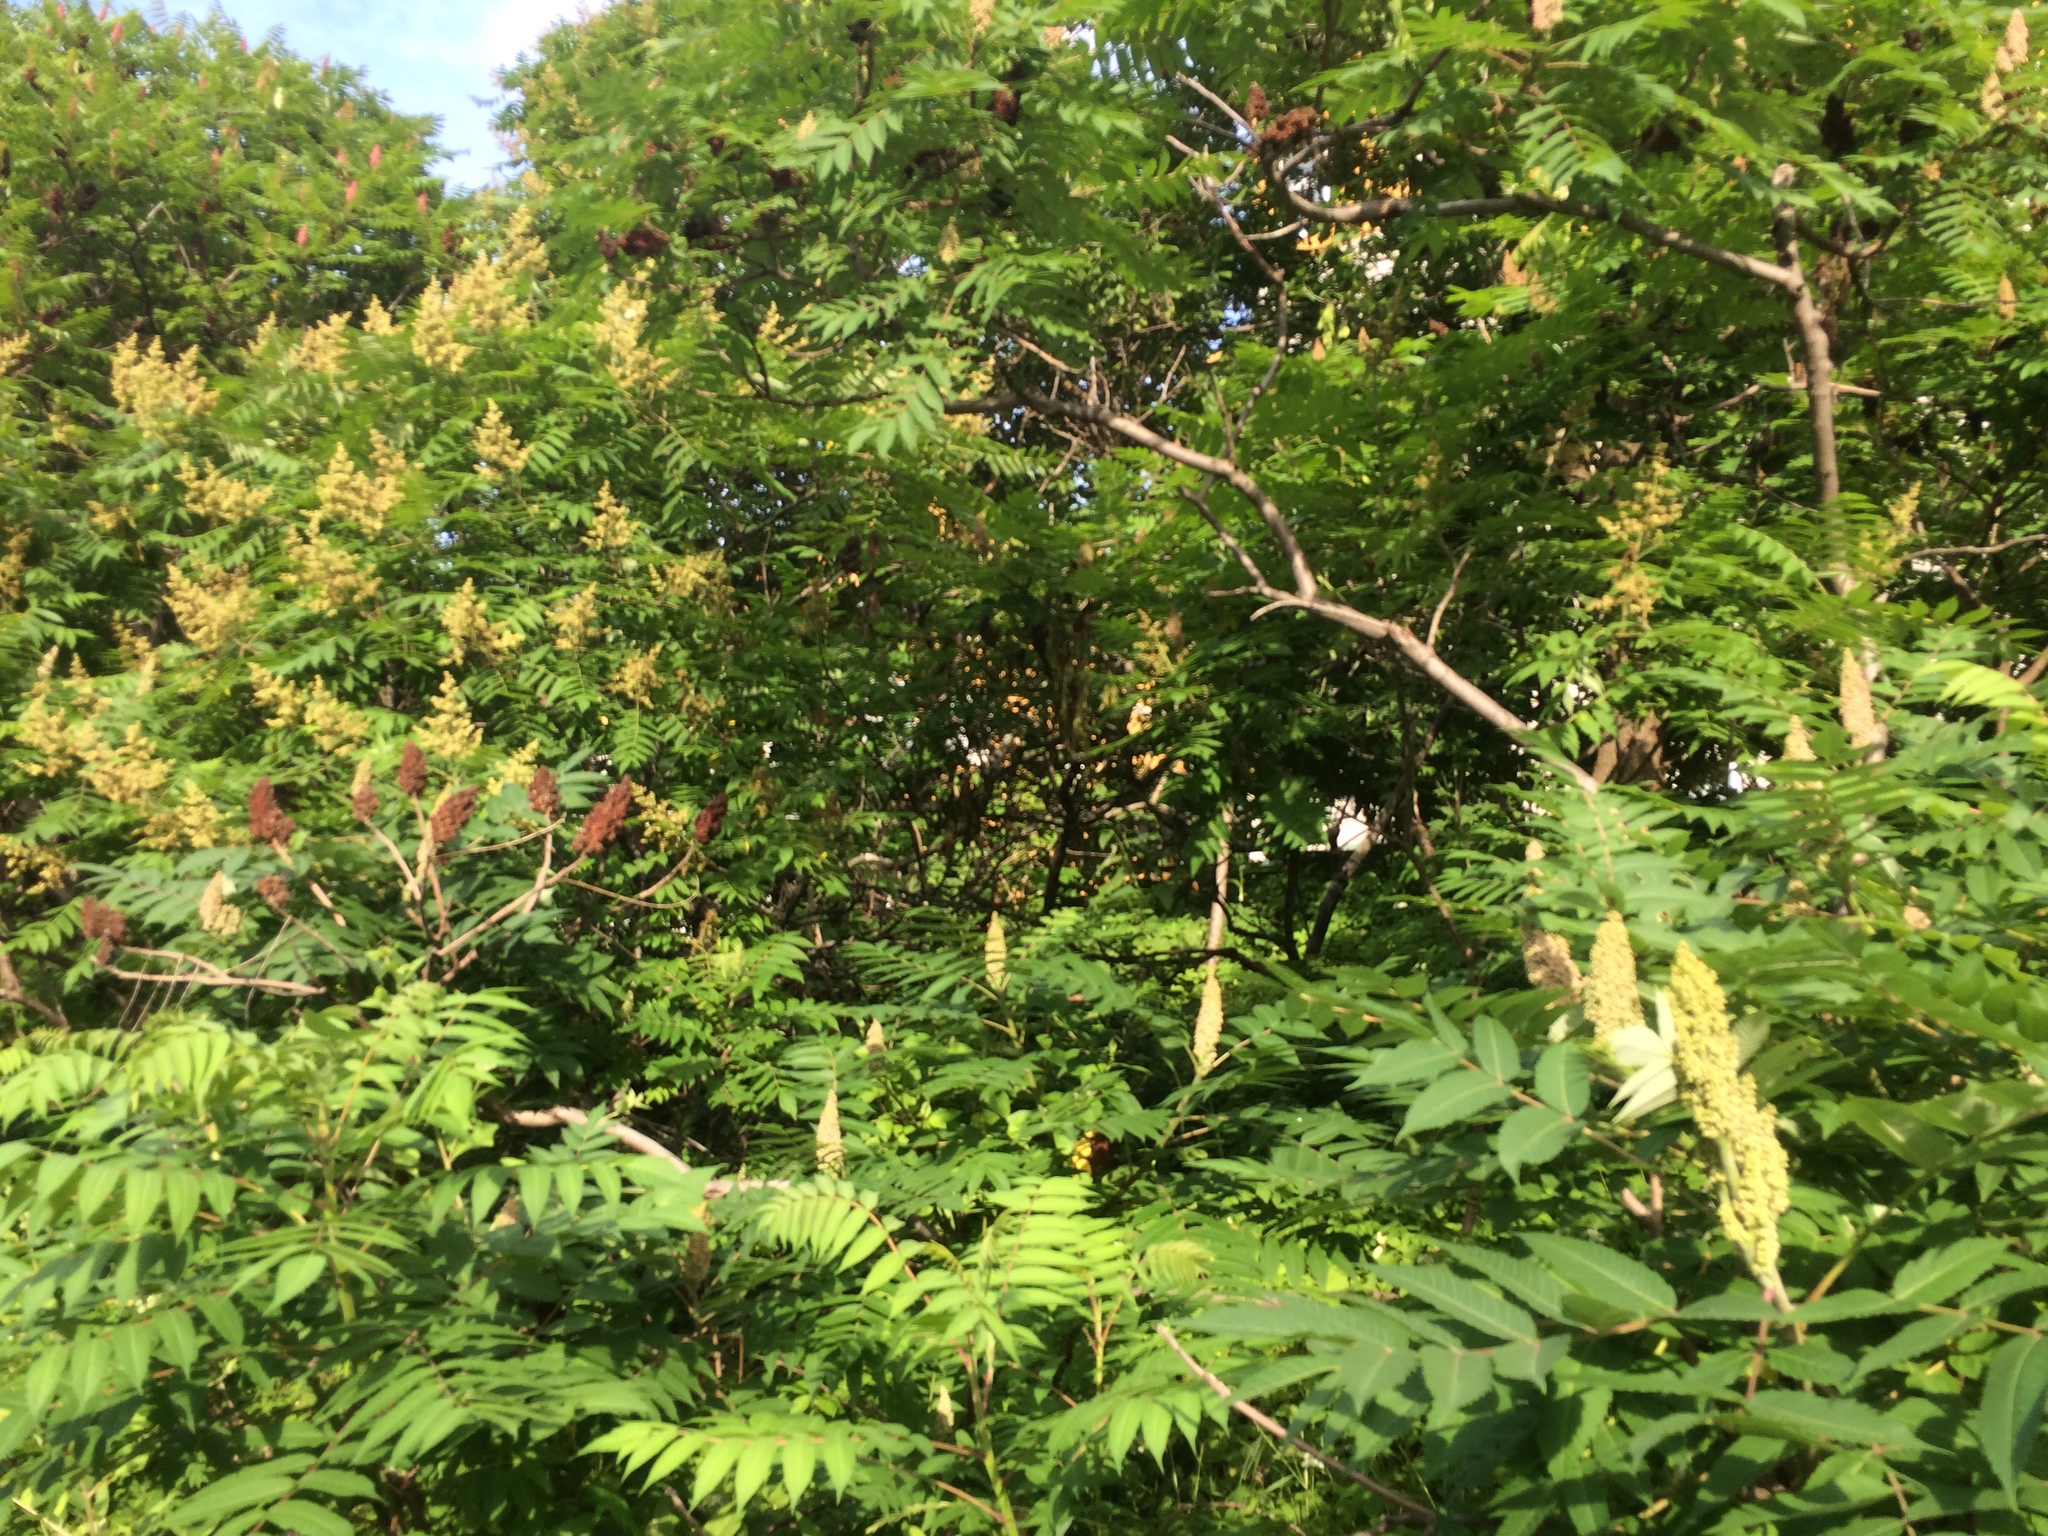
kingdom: Plantae
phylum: Tracheophyta
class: Magnoliopsida
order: Sapindales
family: Anacardiaceae
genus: Rhus
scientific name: Rhus typhina
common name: Staghorn sumac
